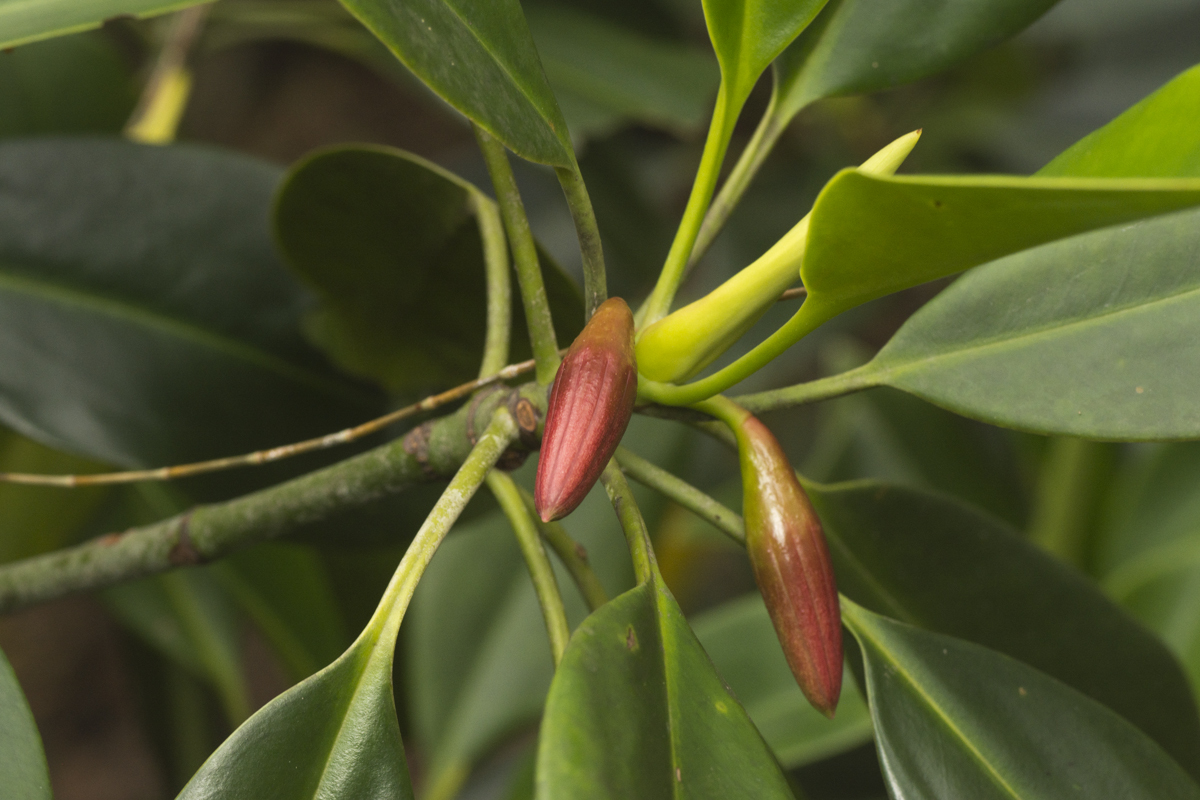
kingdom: Plantae
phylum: Tracheophyta
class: Magnoliopsida
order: Malpighiales
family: Rhizophoraceae
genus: Bruguiera
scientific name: Bruguiera gymnorhiza
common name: Oriental mangrove
